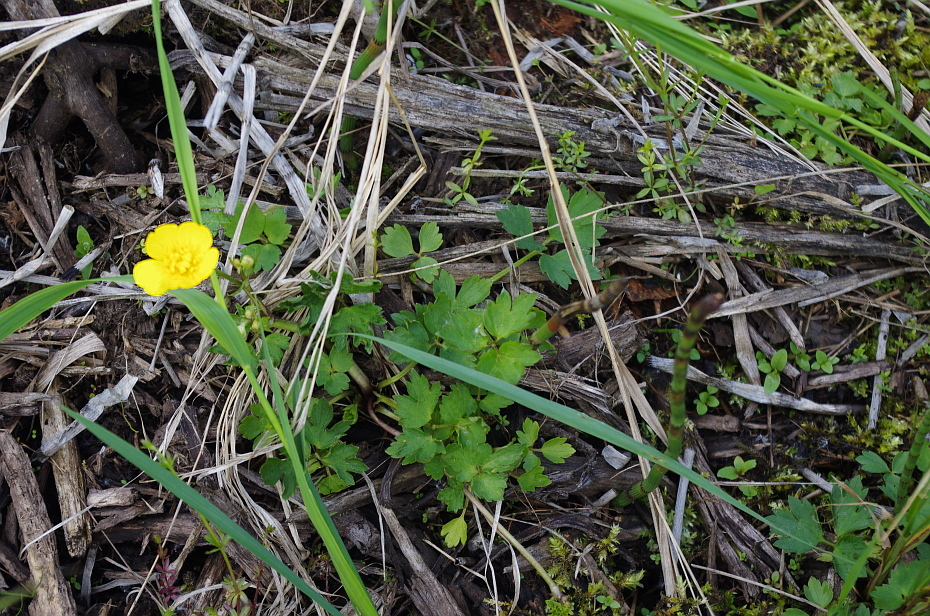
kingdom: Plantae
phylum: Tracheophyta
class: Magnoliopsida
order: Ranunculales
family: Ranunculaceae
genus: Ranunculus
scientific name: Ranunculus repens
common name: Creeping buttercup
